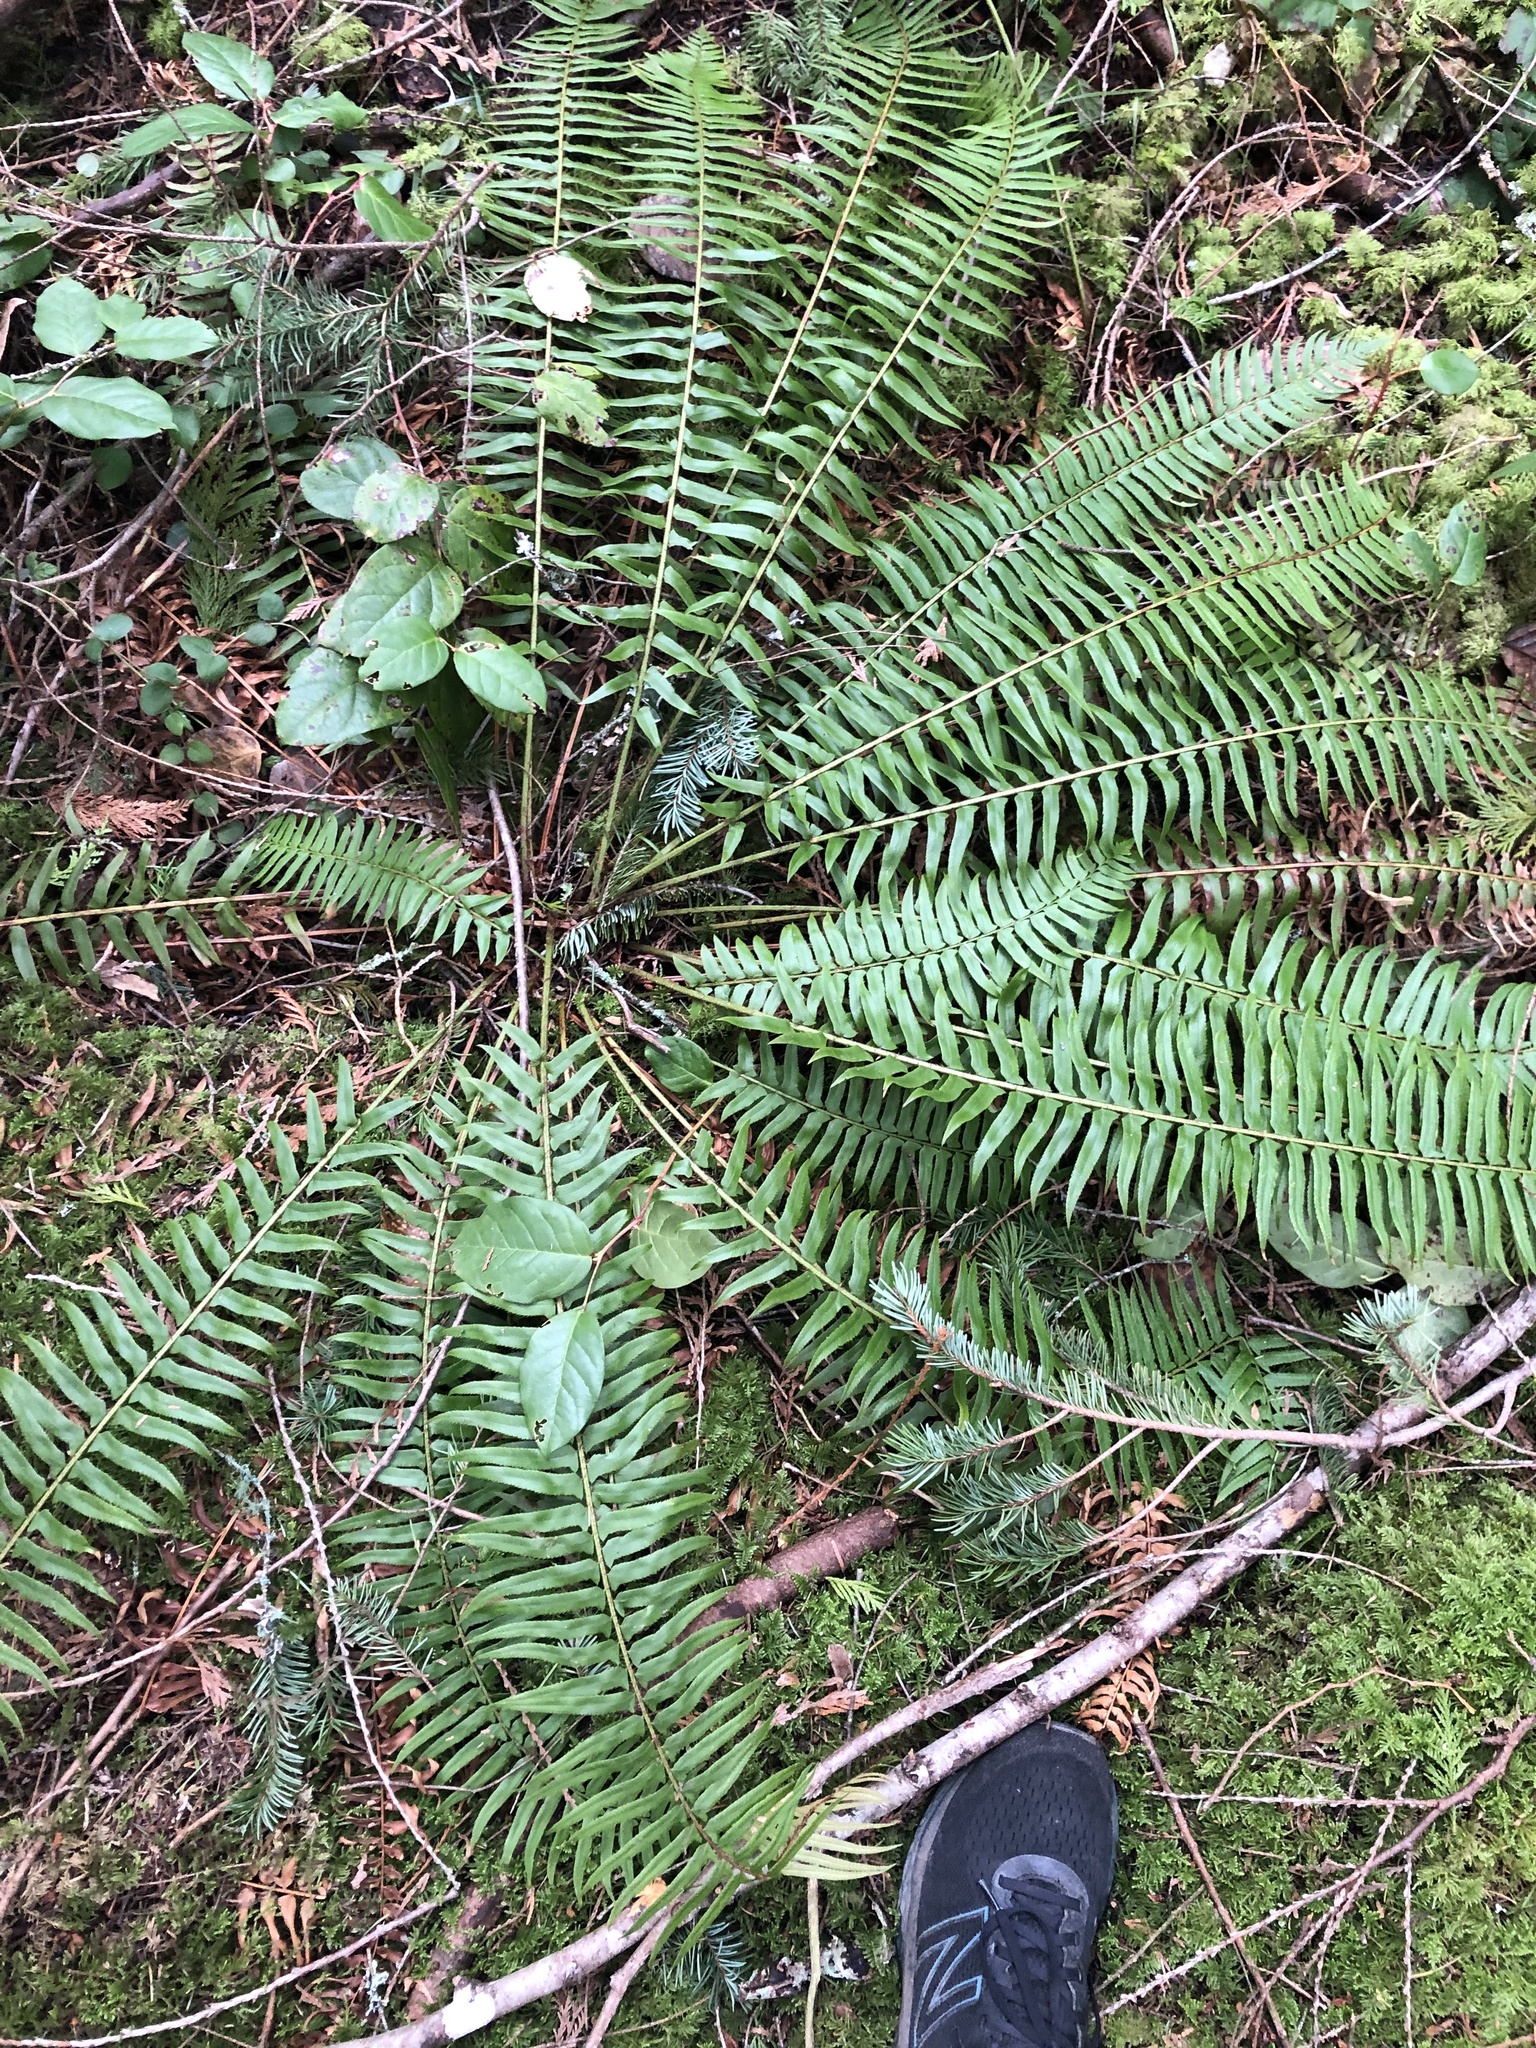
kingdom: Plantae
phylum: Tracheophyta
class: Polypodiopsida
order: Polypodiales
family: Dryopteridaceae
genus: Polystichum
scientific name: Polystichum munitum
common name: Western sword-fern
